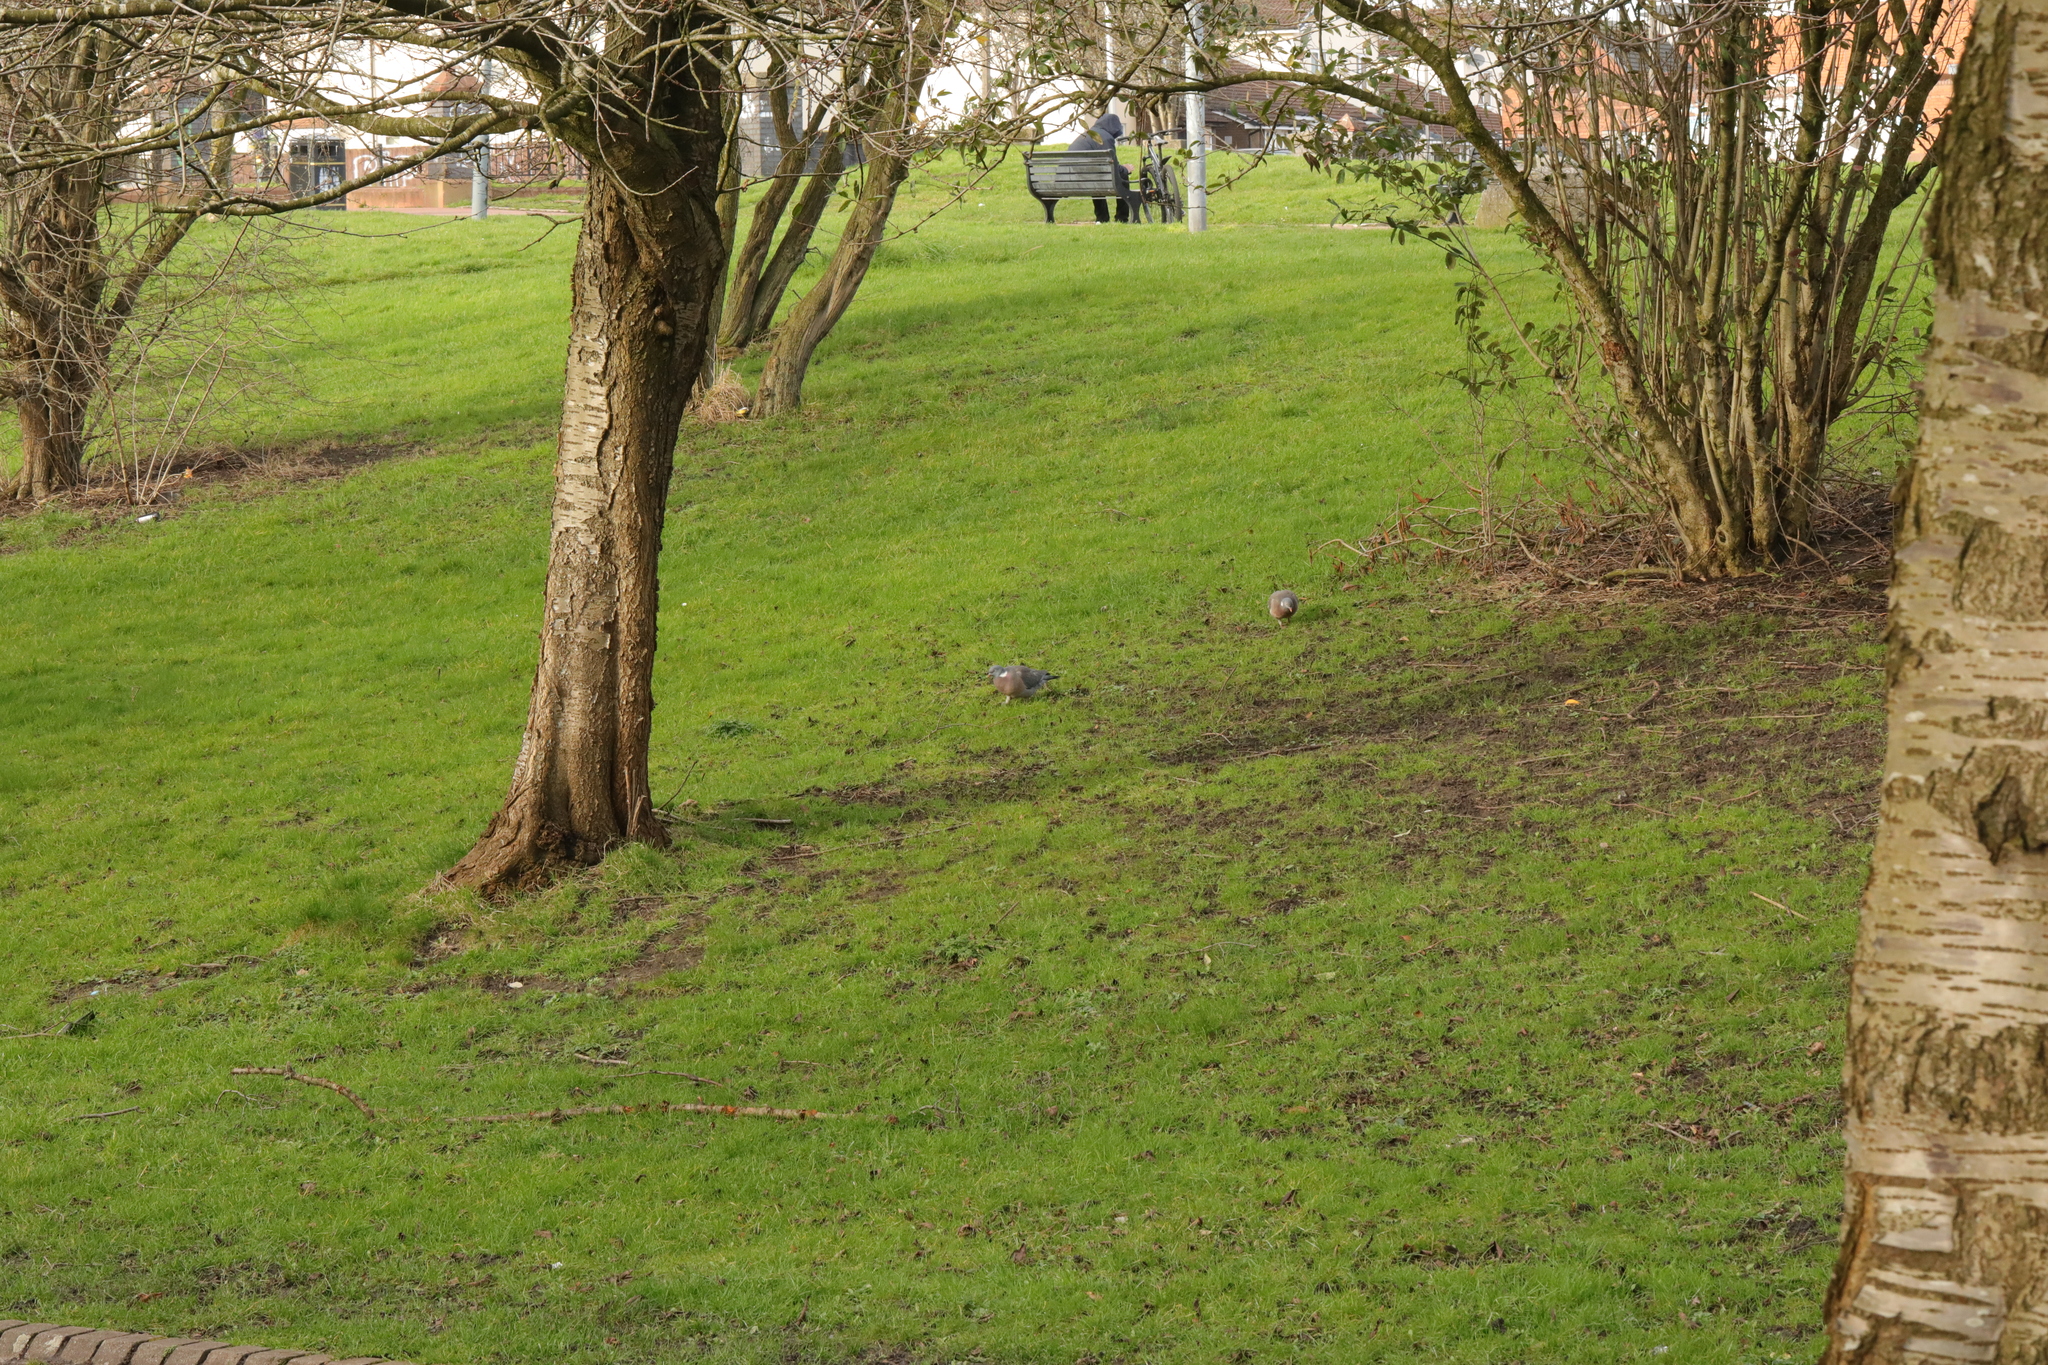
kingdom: Animalia
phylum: Chordata
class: Aves
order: Columbiformes
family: Columbidae
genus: Columba
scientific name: Columba palumbus
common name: Common wood pigeon
